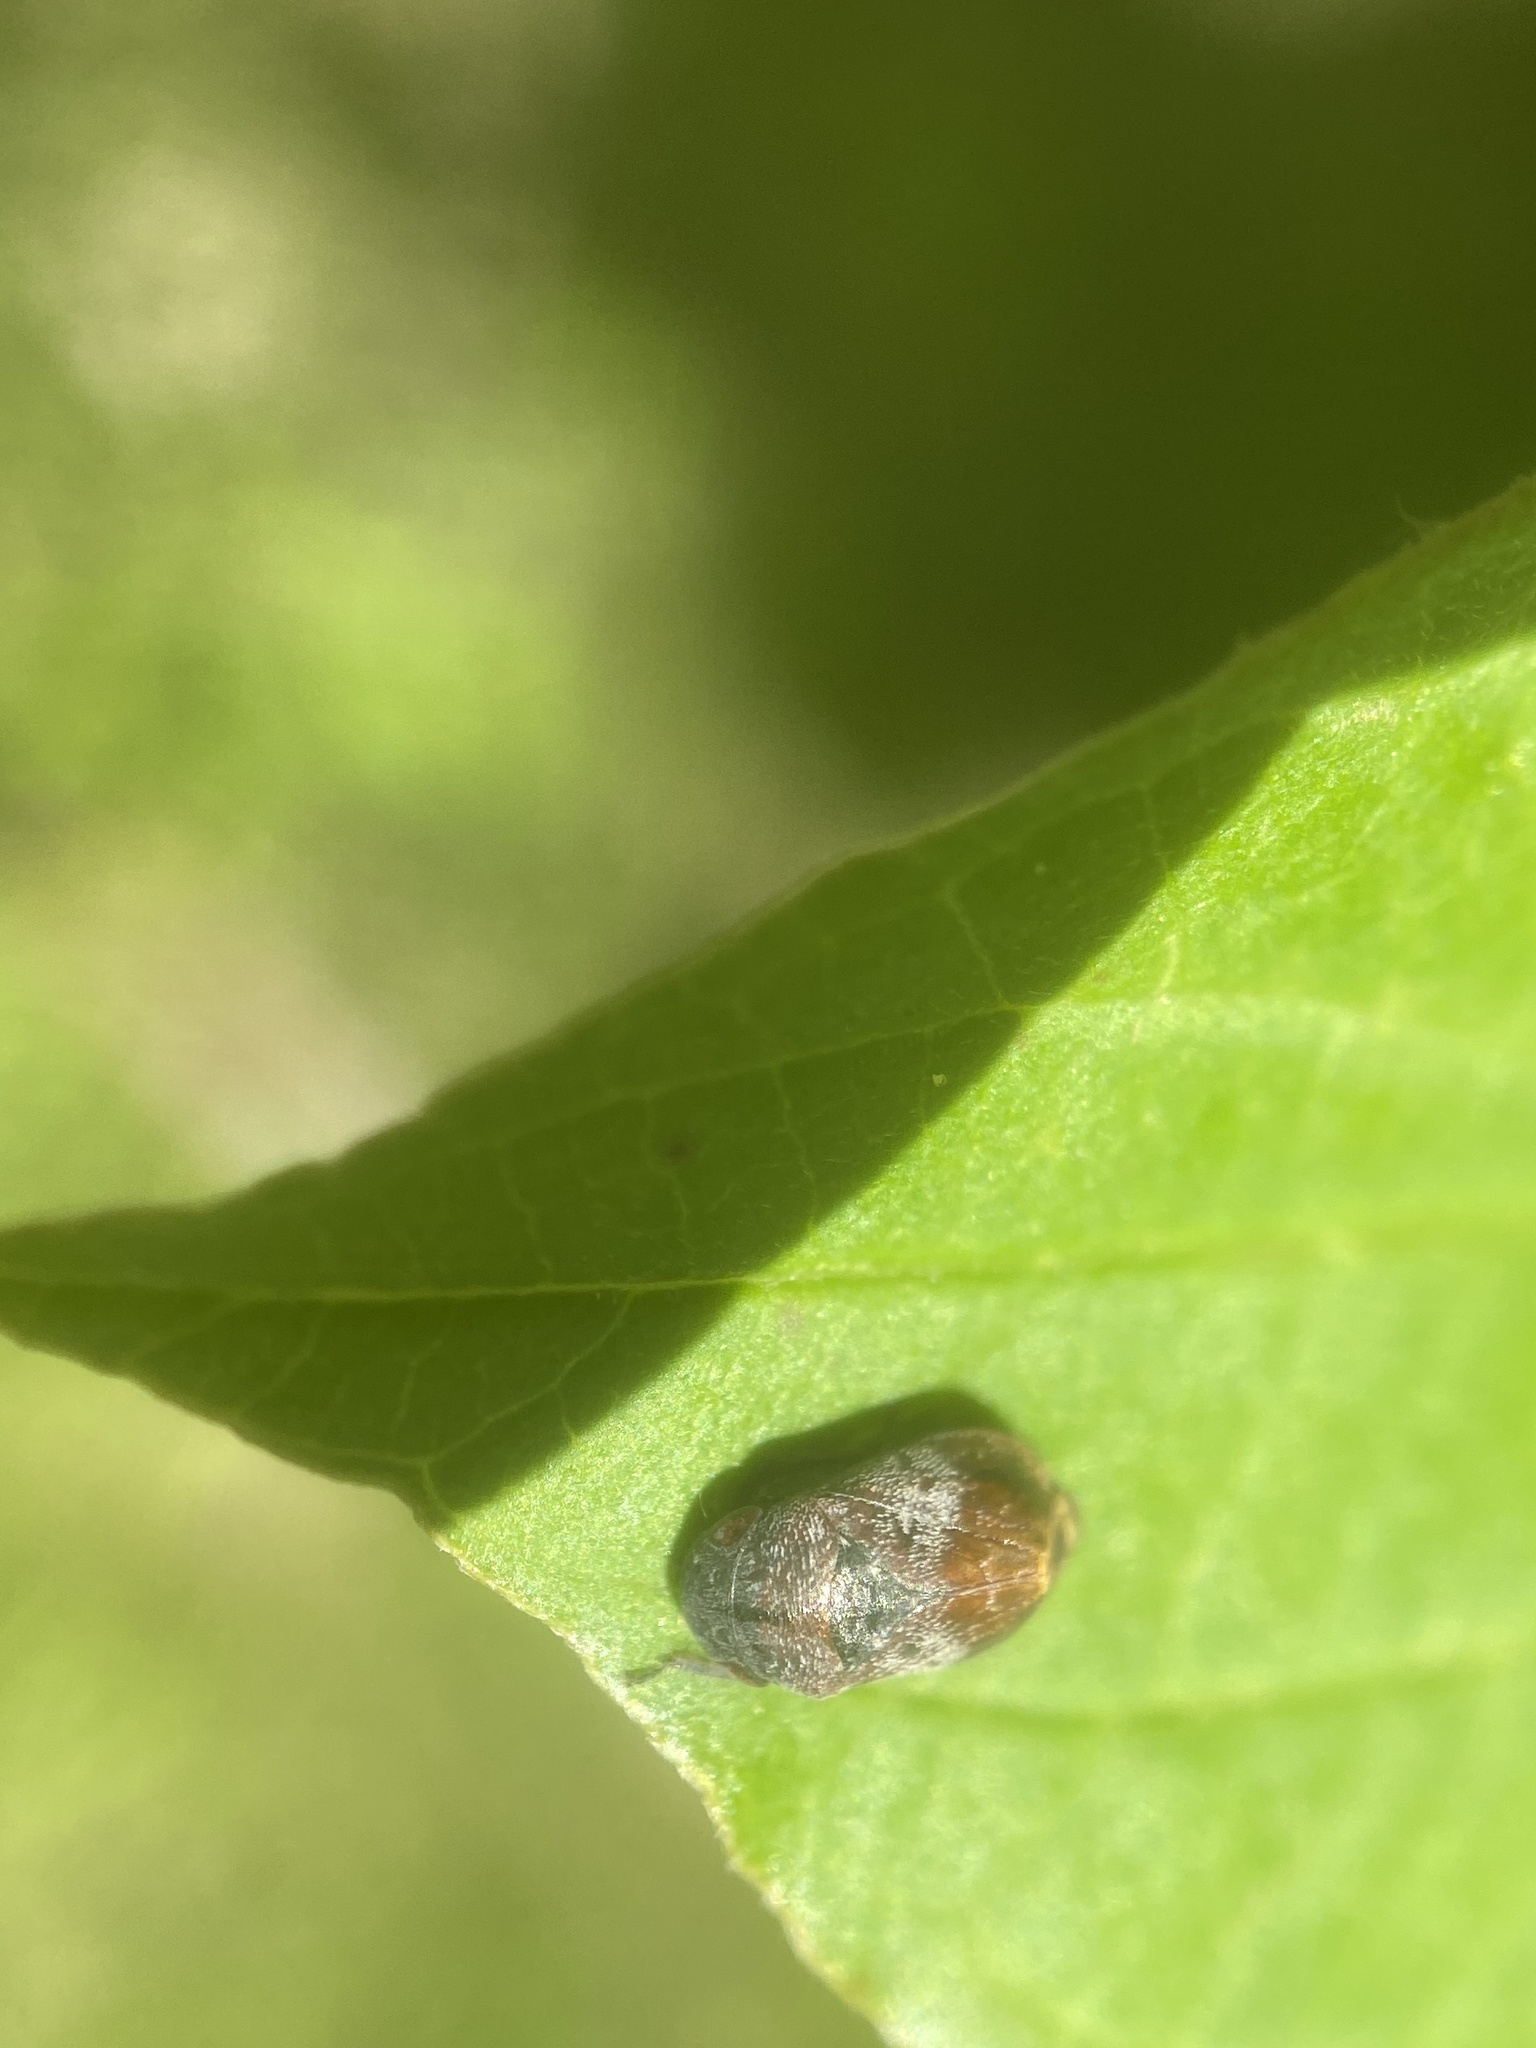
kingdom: Animalia
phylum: Arthropoda
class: Insecta
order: Hemiptera
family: Cicadellidae
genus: Penthimia
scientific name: Penthimia americana
